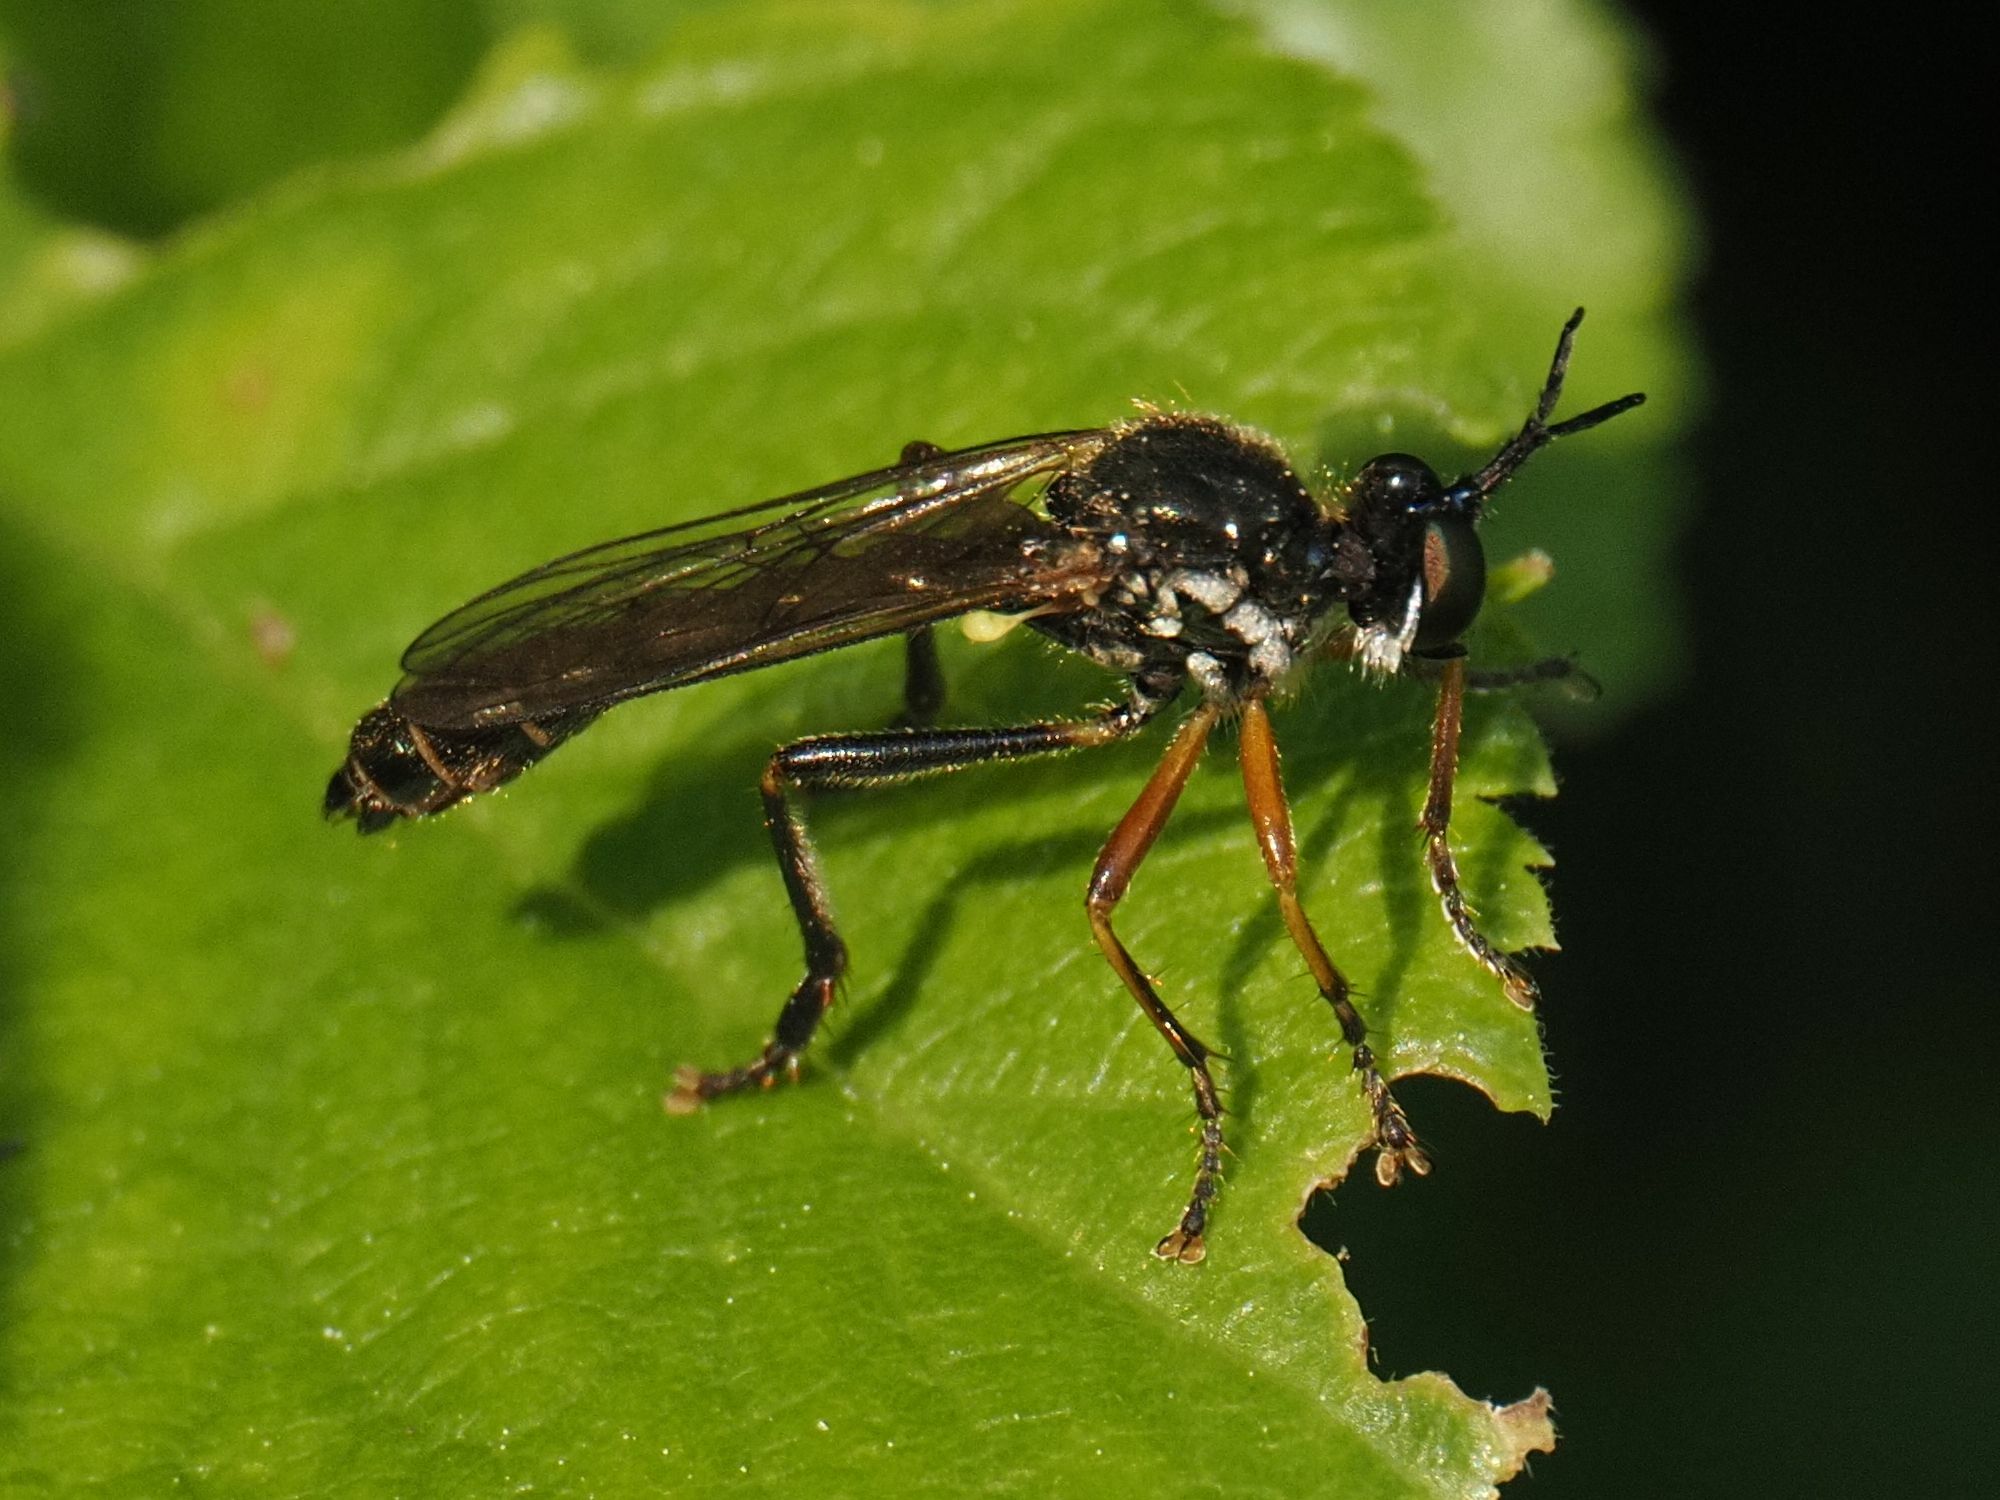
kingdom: Animalia
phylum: Arthropoda
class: Insecta
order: Diptera
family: Asilidae
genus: Dioctria
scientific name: Dioctria rufipes
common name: Common red-legged robberfly
